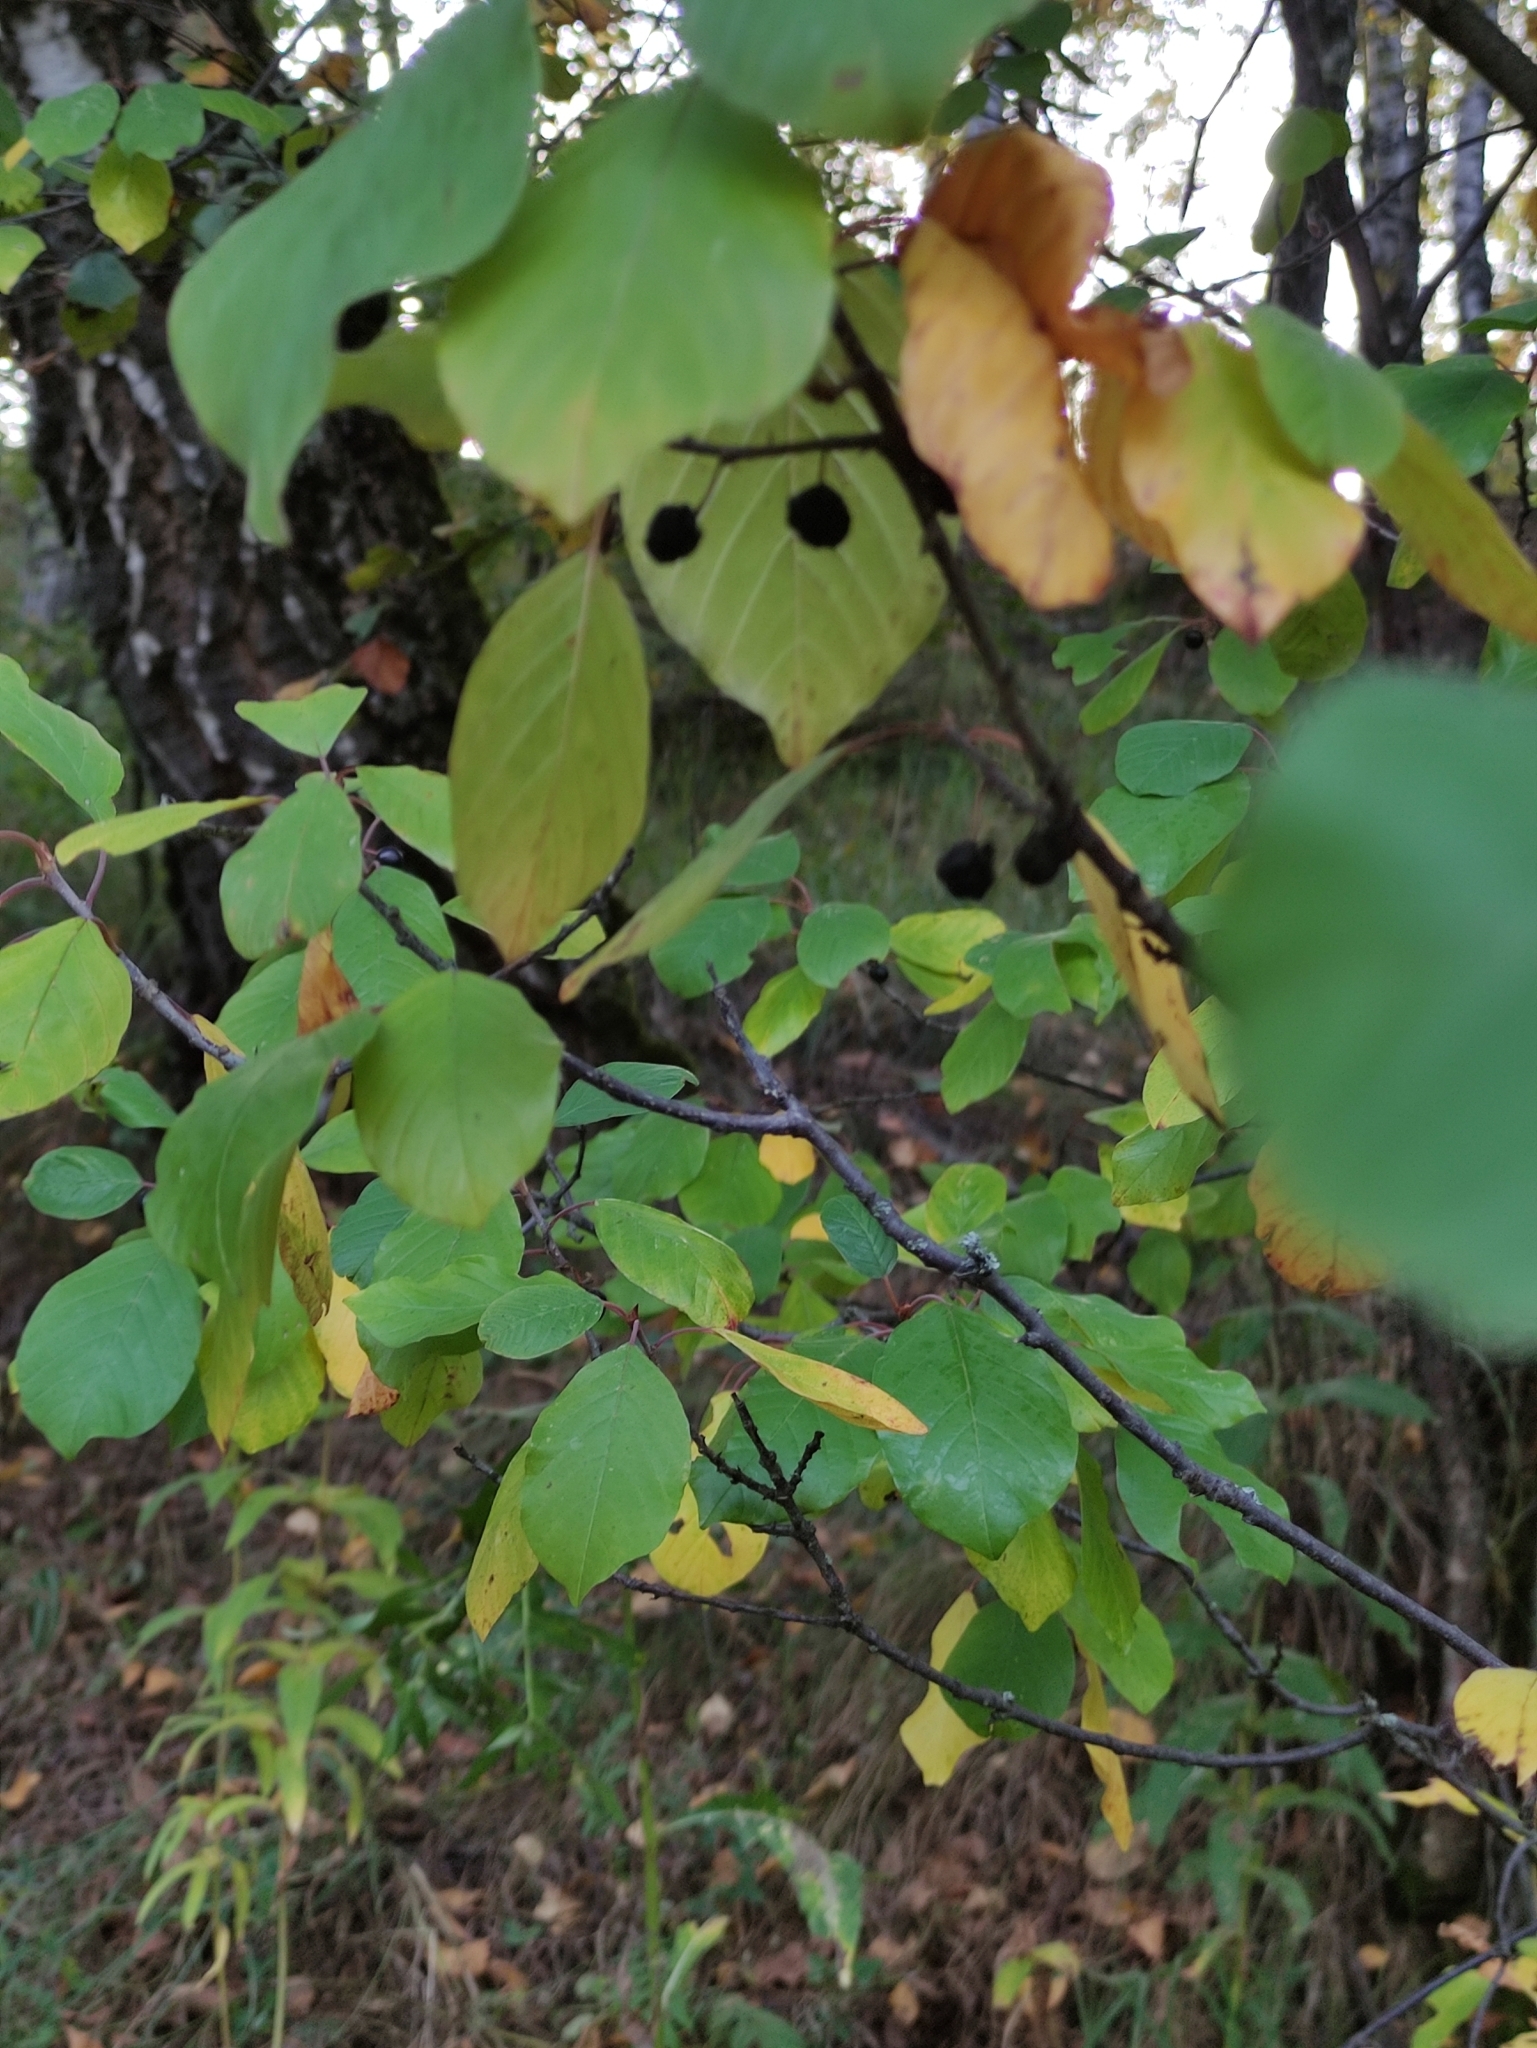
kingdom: Plantae
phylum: Tracheophyta
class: Magnoliopsida
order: Rosales
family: Rhamnaceae
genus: Frangula
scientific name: Frangula alnus
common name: Alder buckthorn
